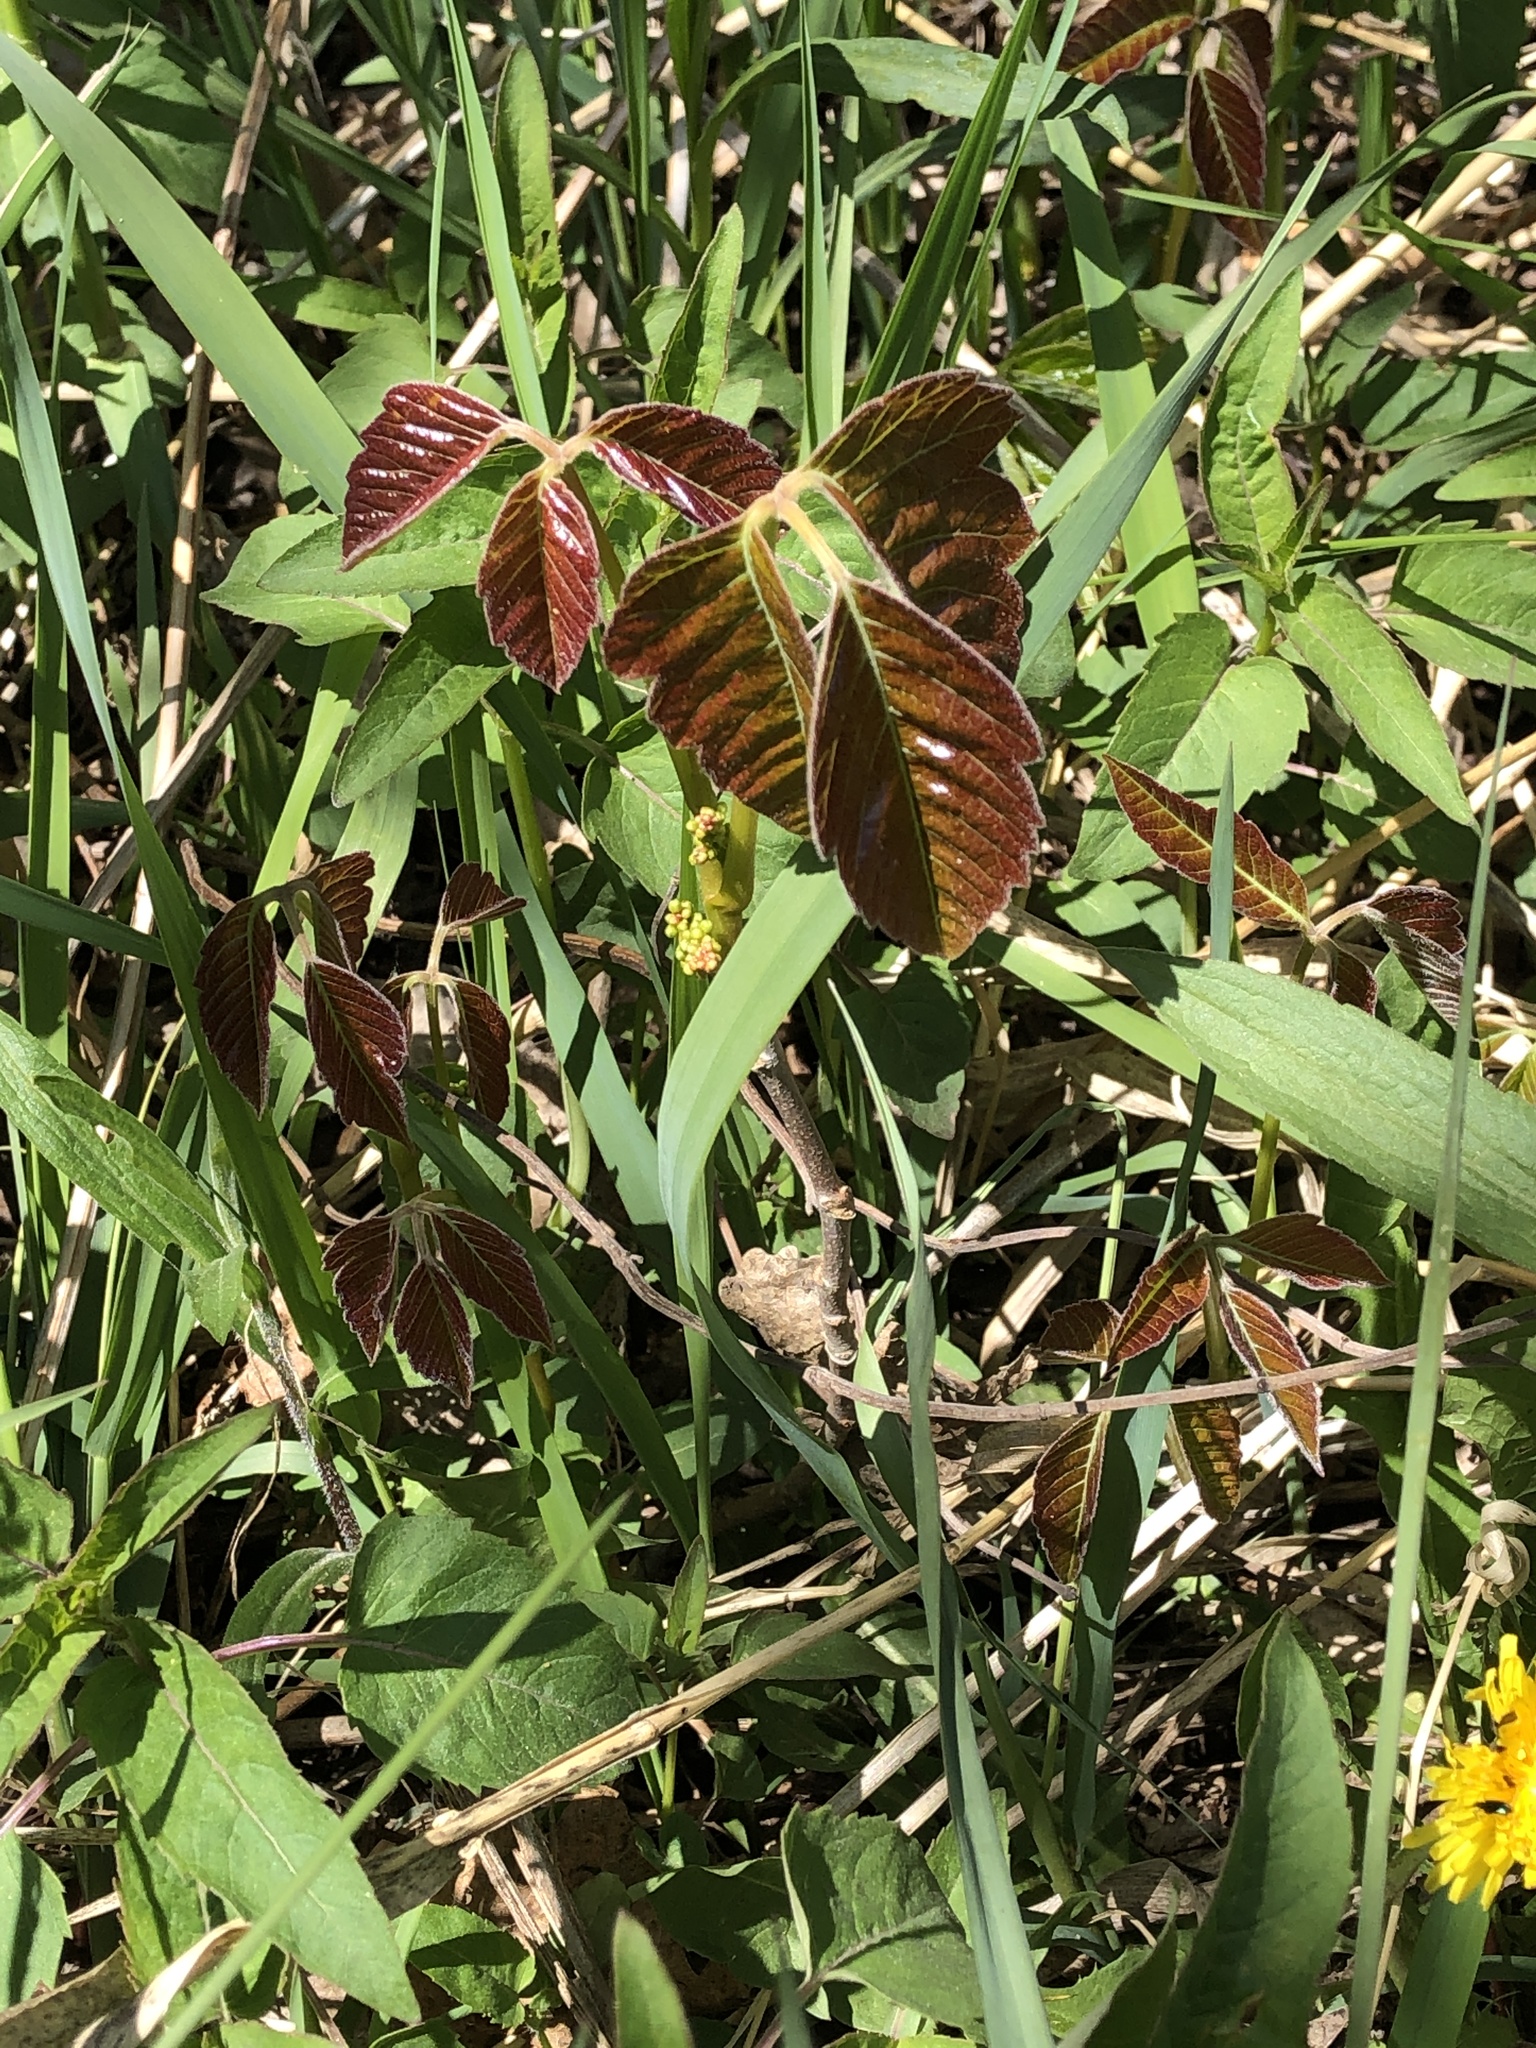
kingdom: Plantae
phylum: Tracheophyta
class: Magnoliopsida
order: Sapindales
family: Anacardiaceae
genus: Toxicodendron
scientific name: Toxicodendron rydbergii
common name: Rydberg's poison-ivy
